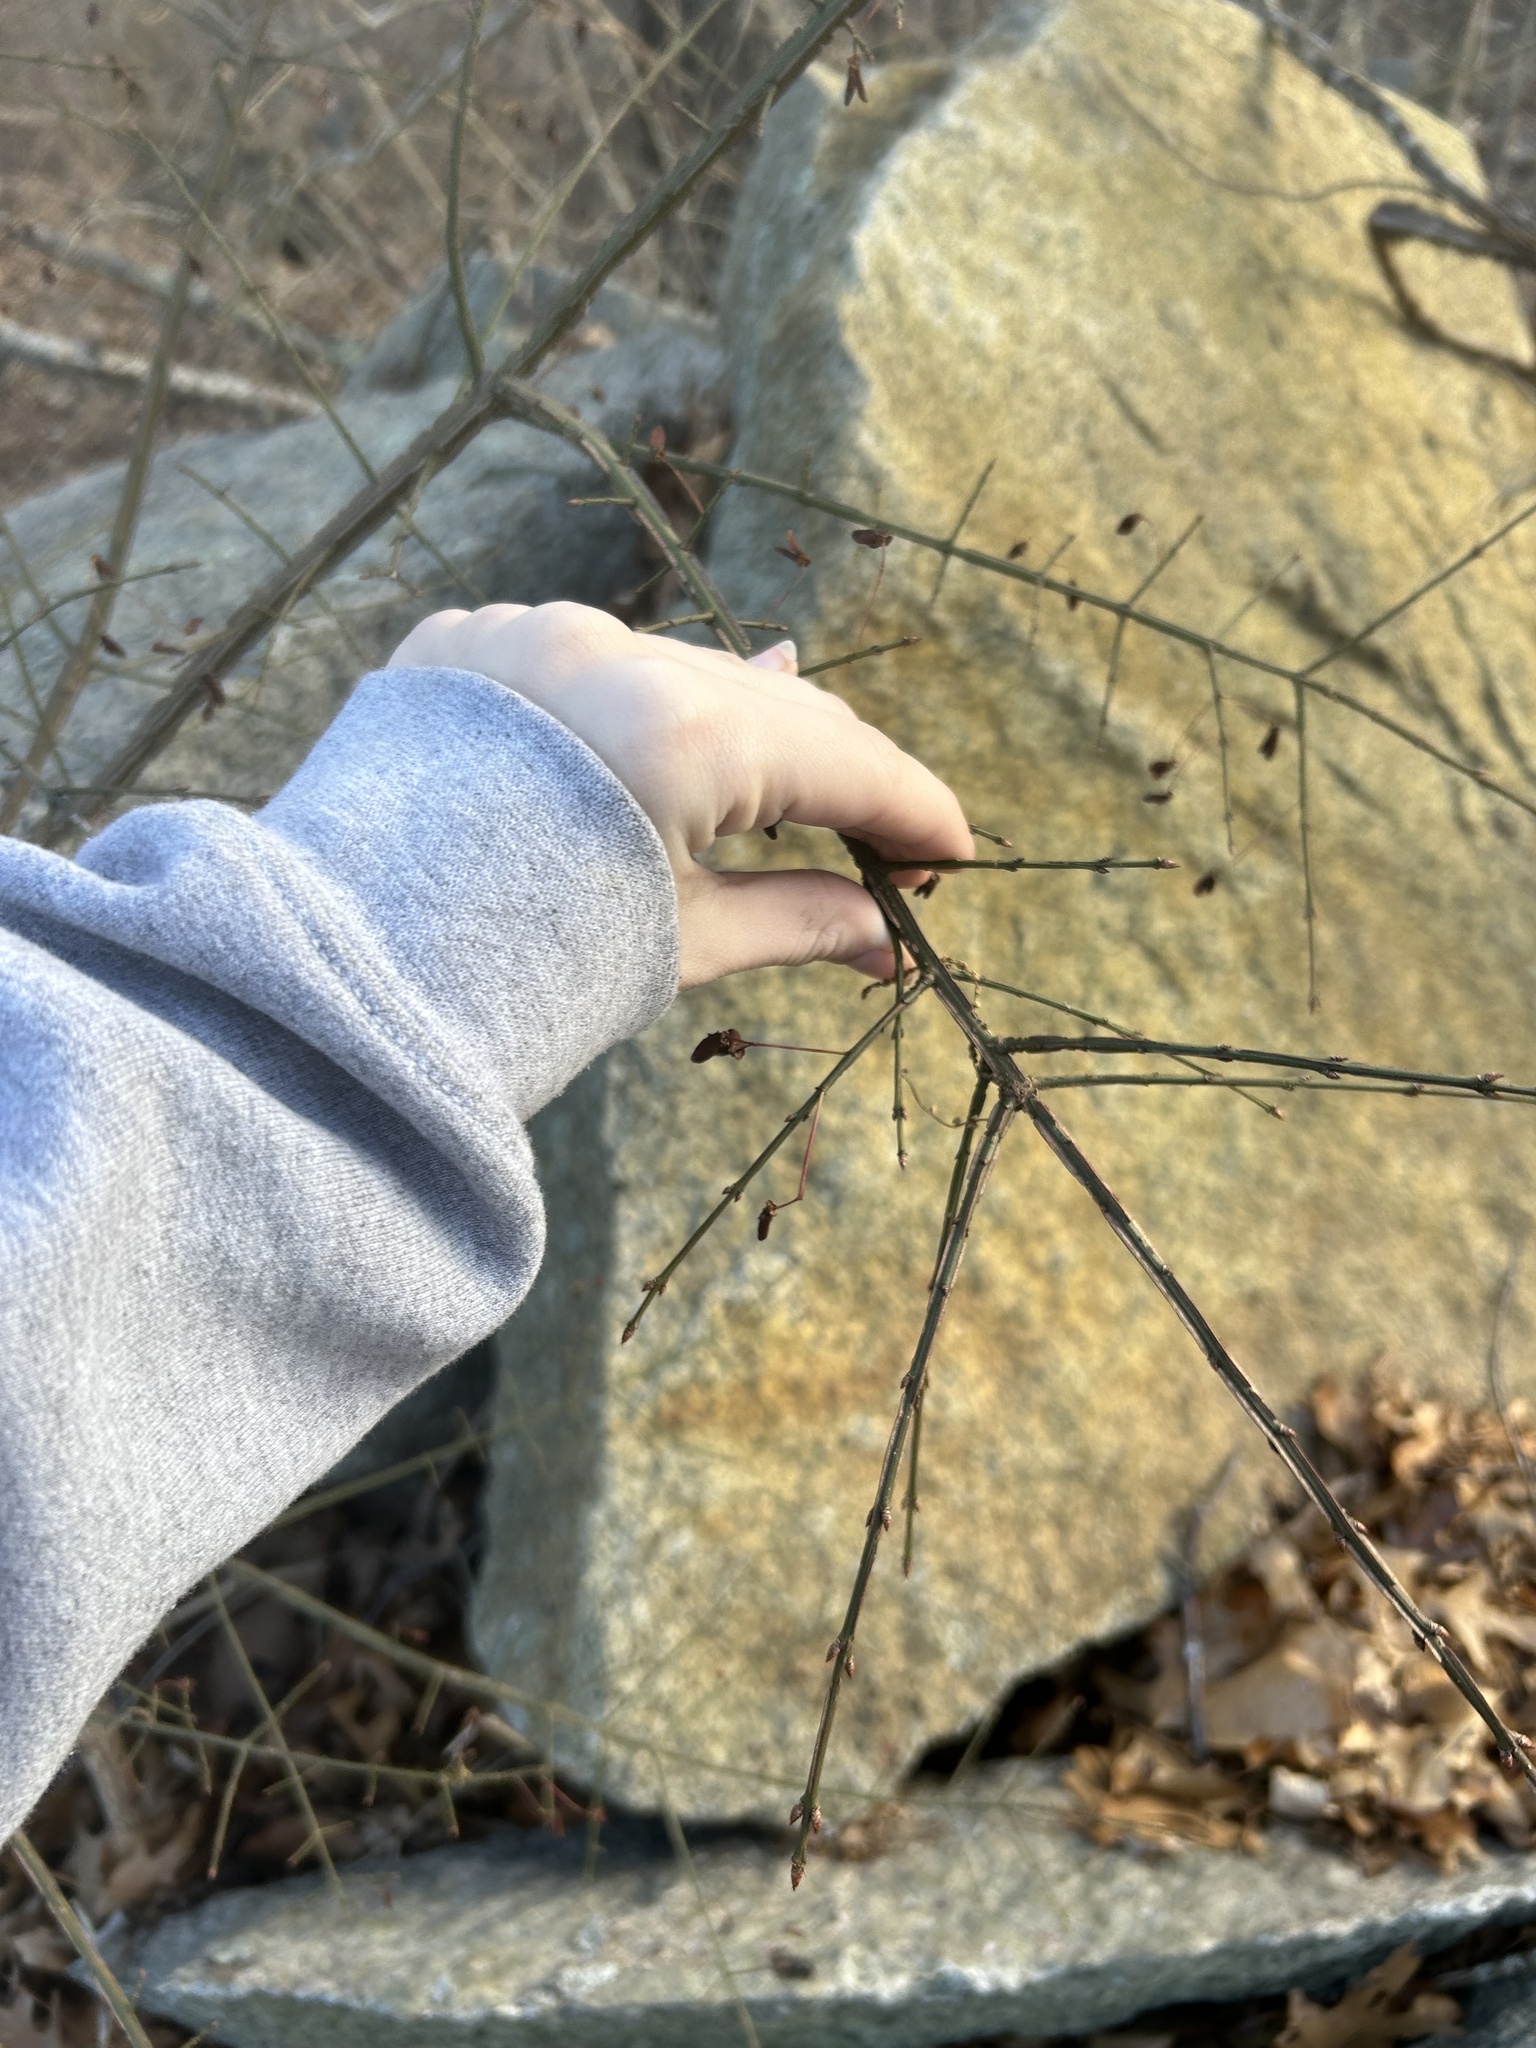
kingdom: Plantae
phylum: Tracheophyta
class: Magnoliopsida
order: Celastrales
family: Celastraceae
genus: Euonymus
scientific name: Euonymus alatus
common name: Winged euonymus
